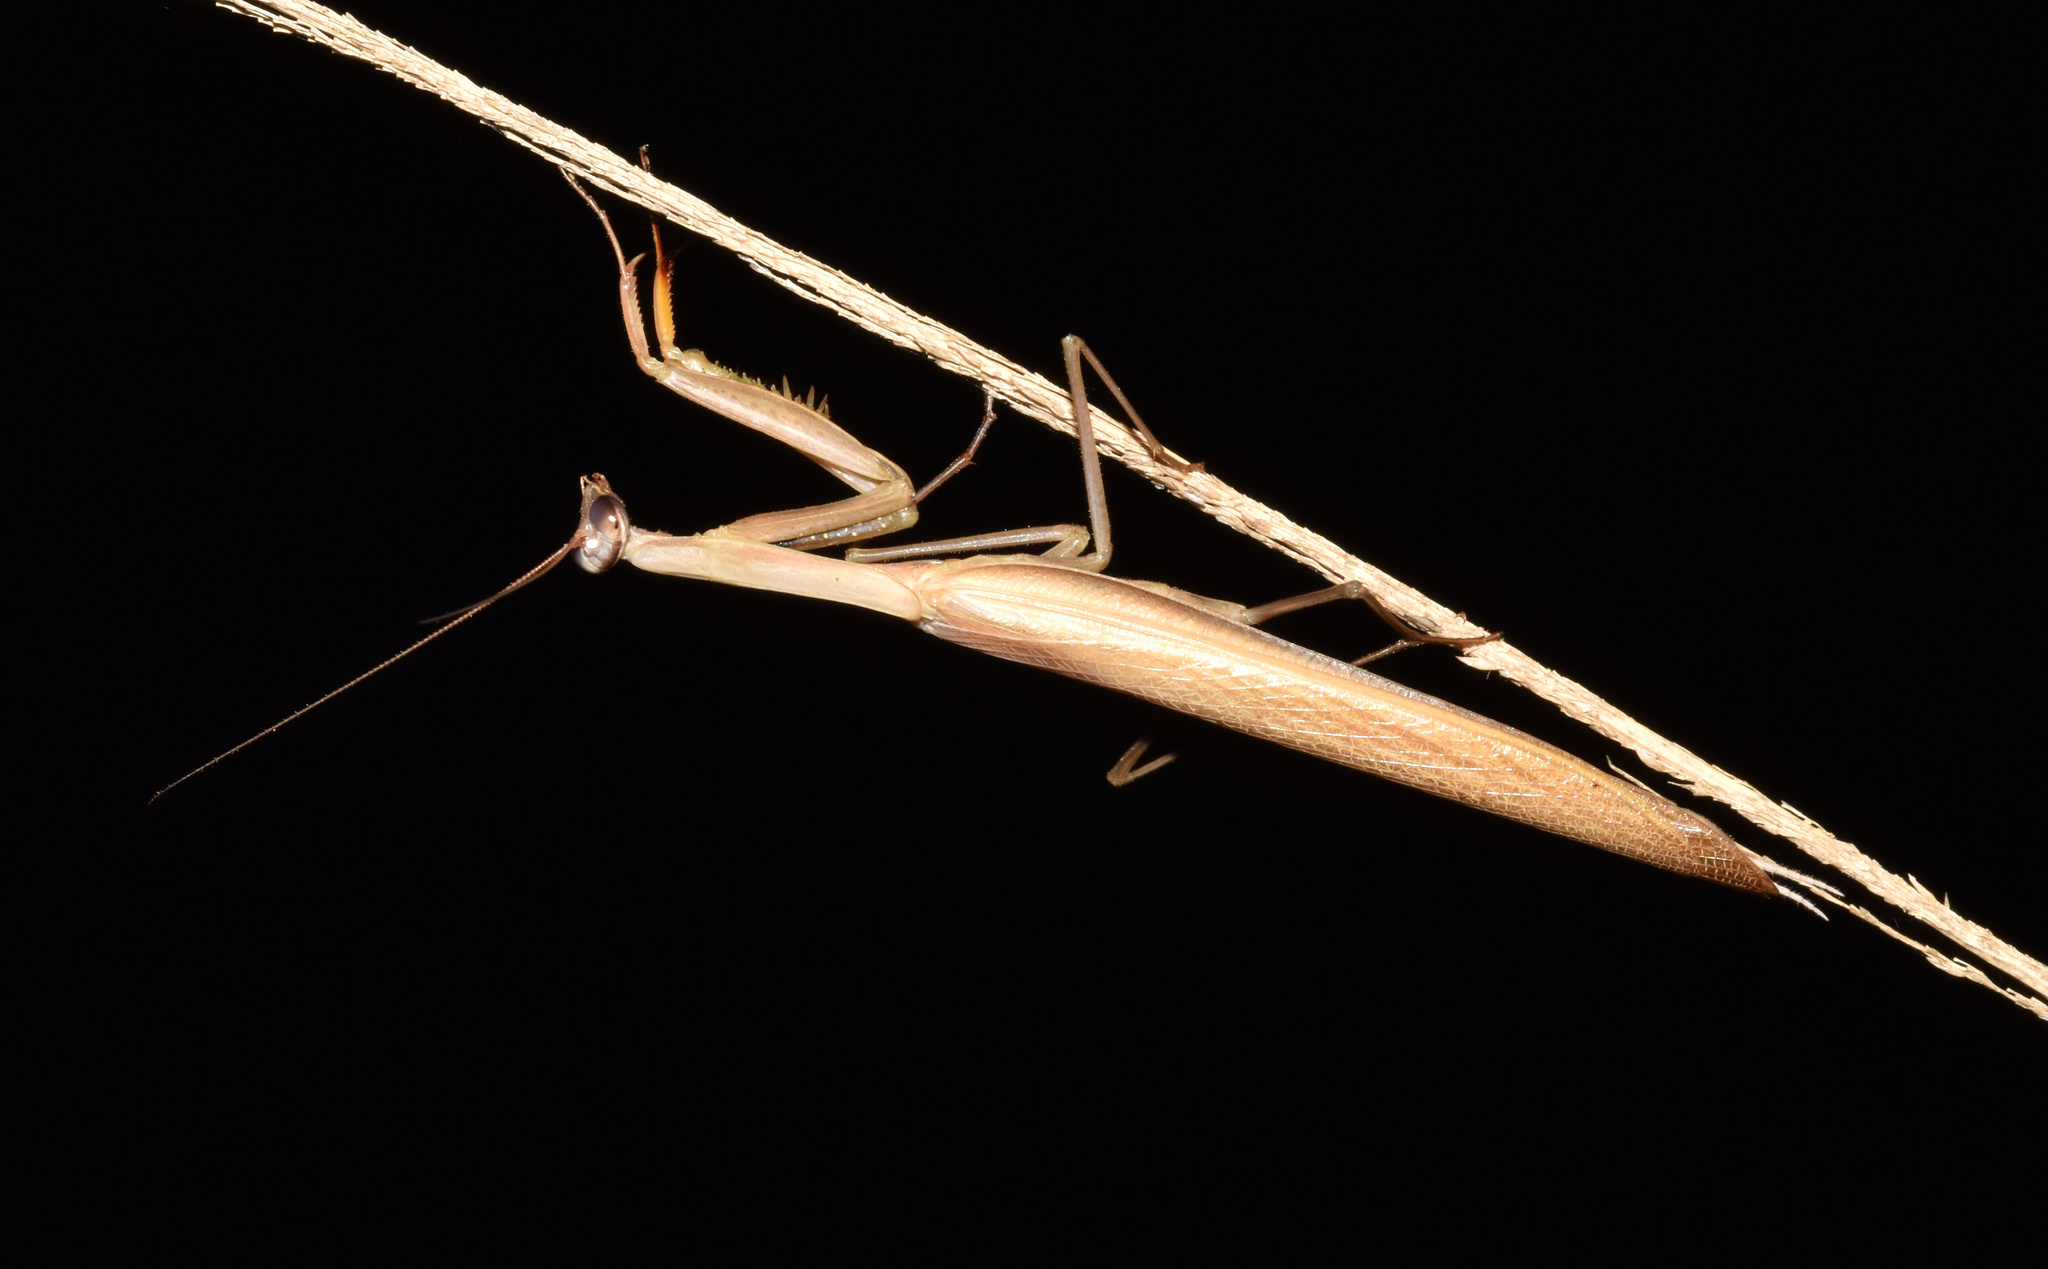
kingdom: Animalia
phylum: Arthropoda
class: Insecta
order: Mantodea
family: Mantidae
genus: Mantis
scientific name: Mantis religiosa
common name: Praying mantis
